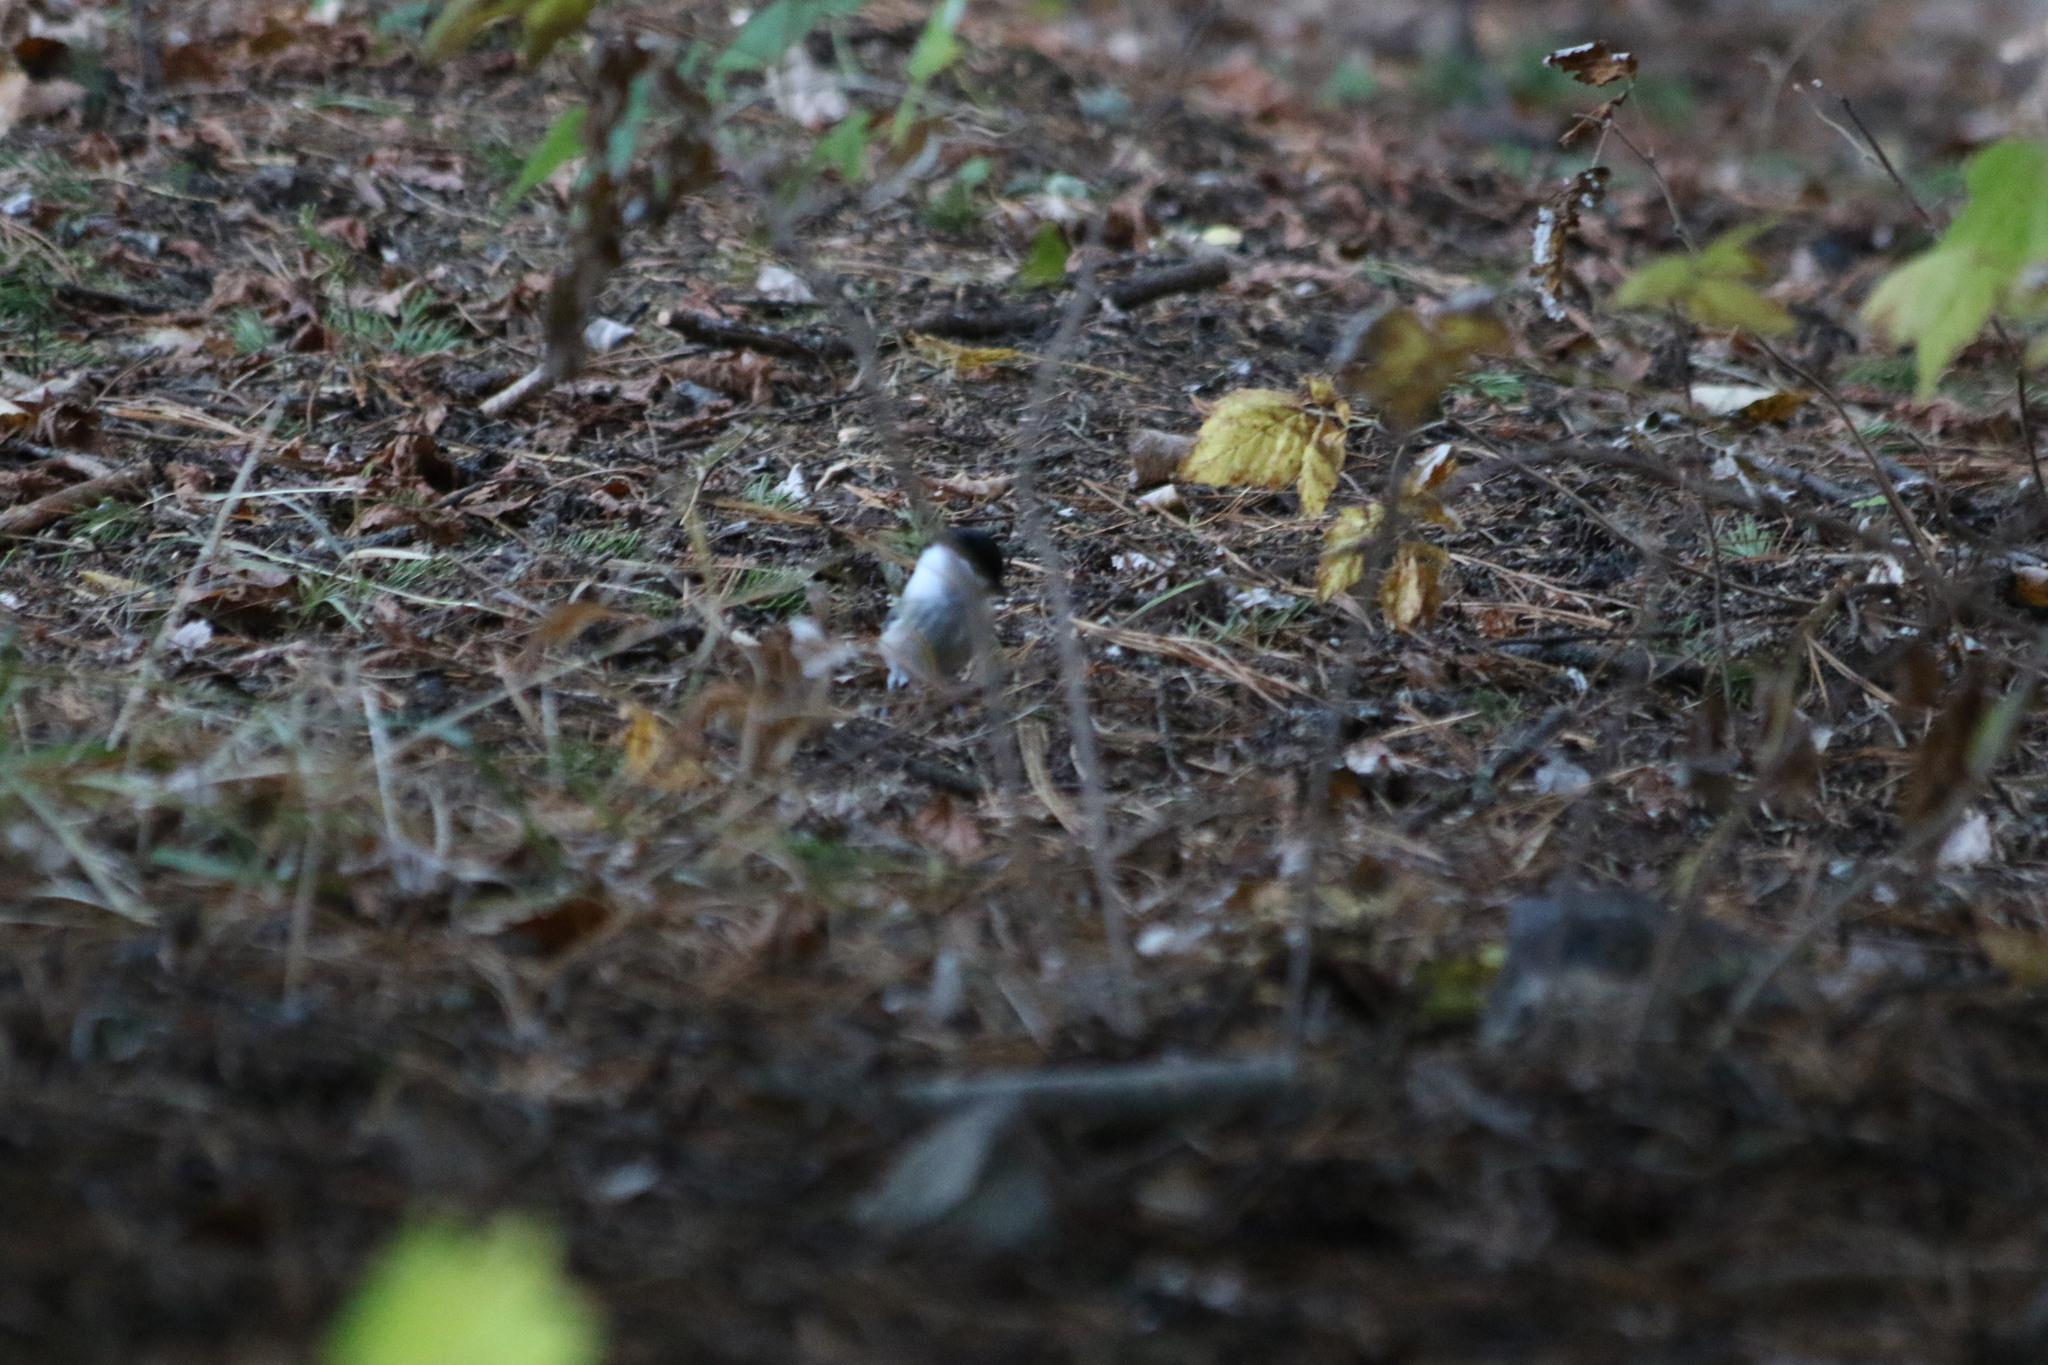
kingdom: Animalia
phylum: Chordata
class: Aves
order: Passeriformes
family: Paridae
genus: Poecile
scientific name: Poecile montanus
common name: Willow tit
